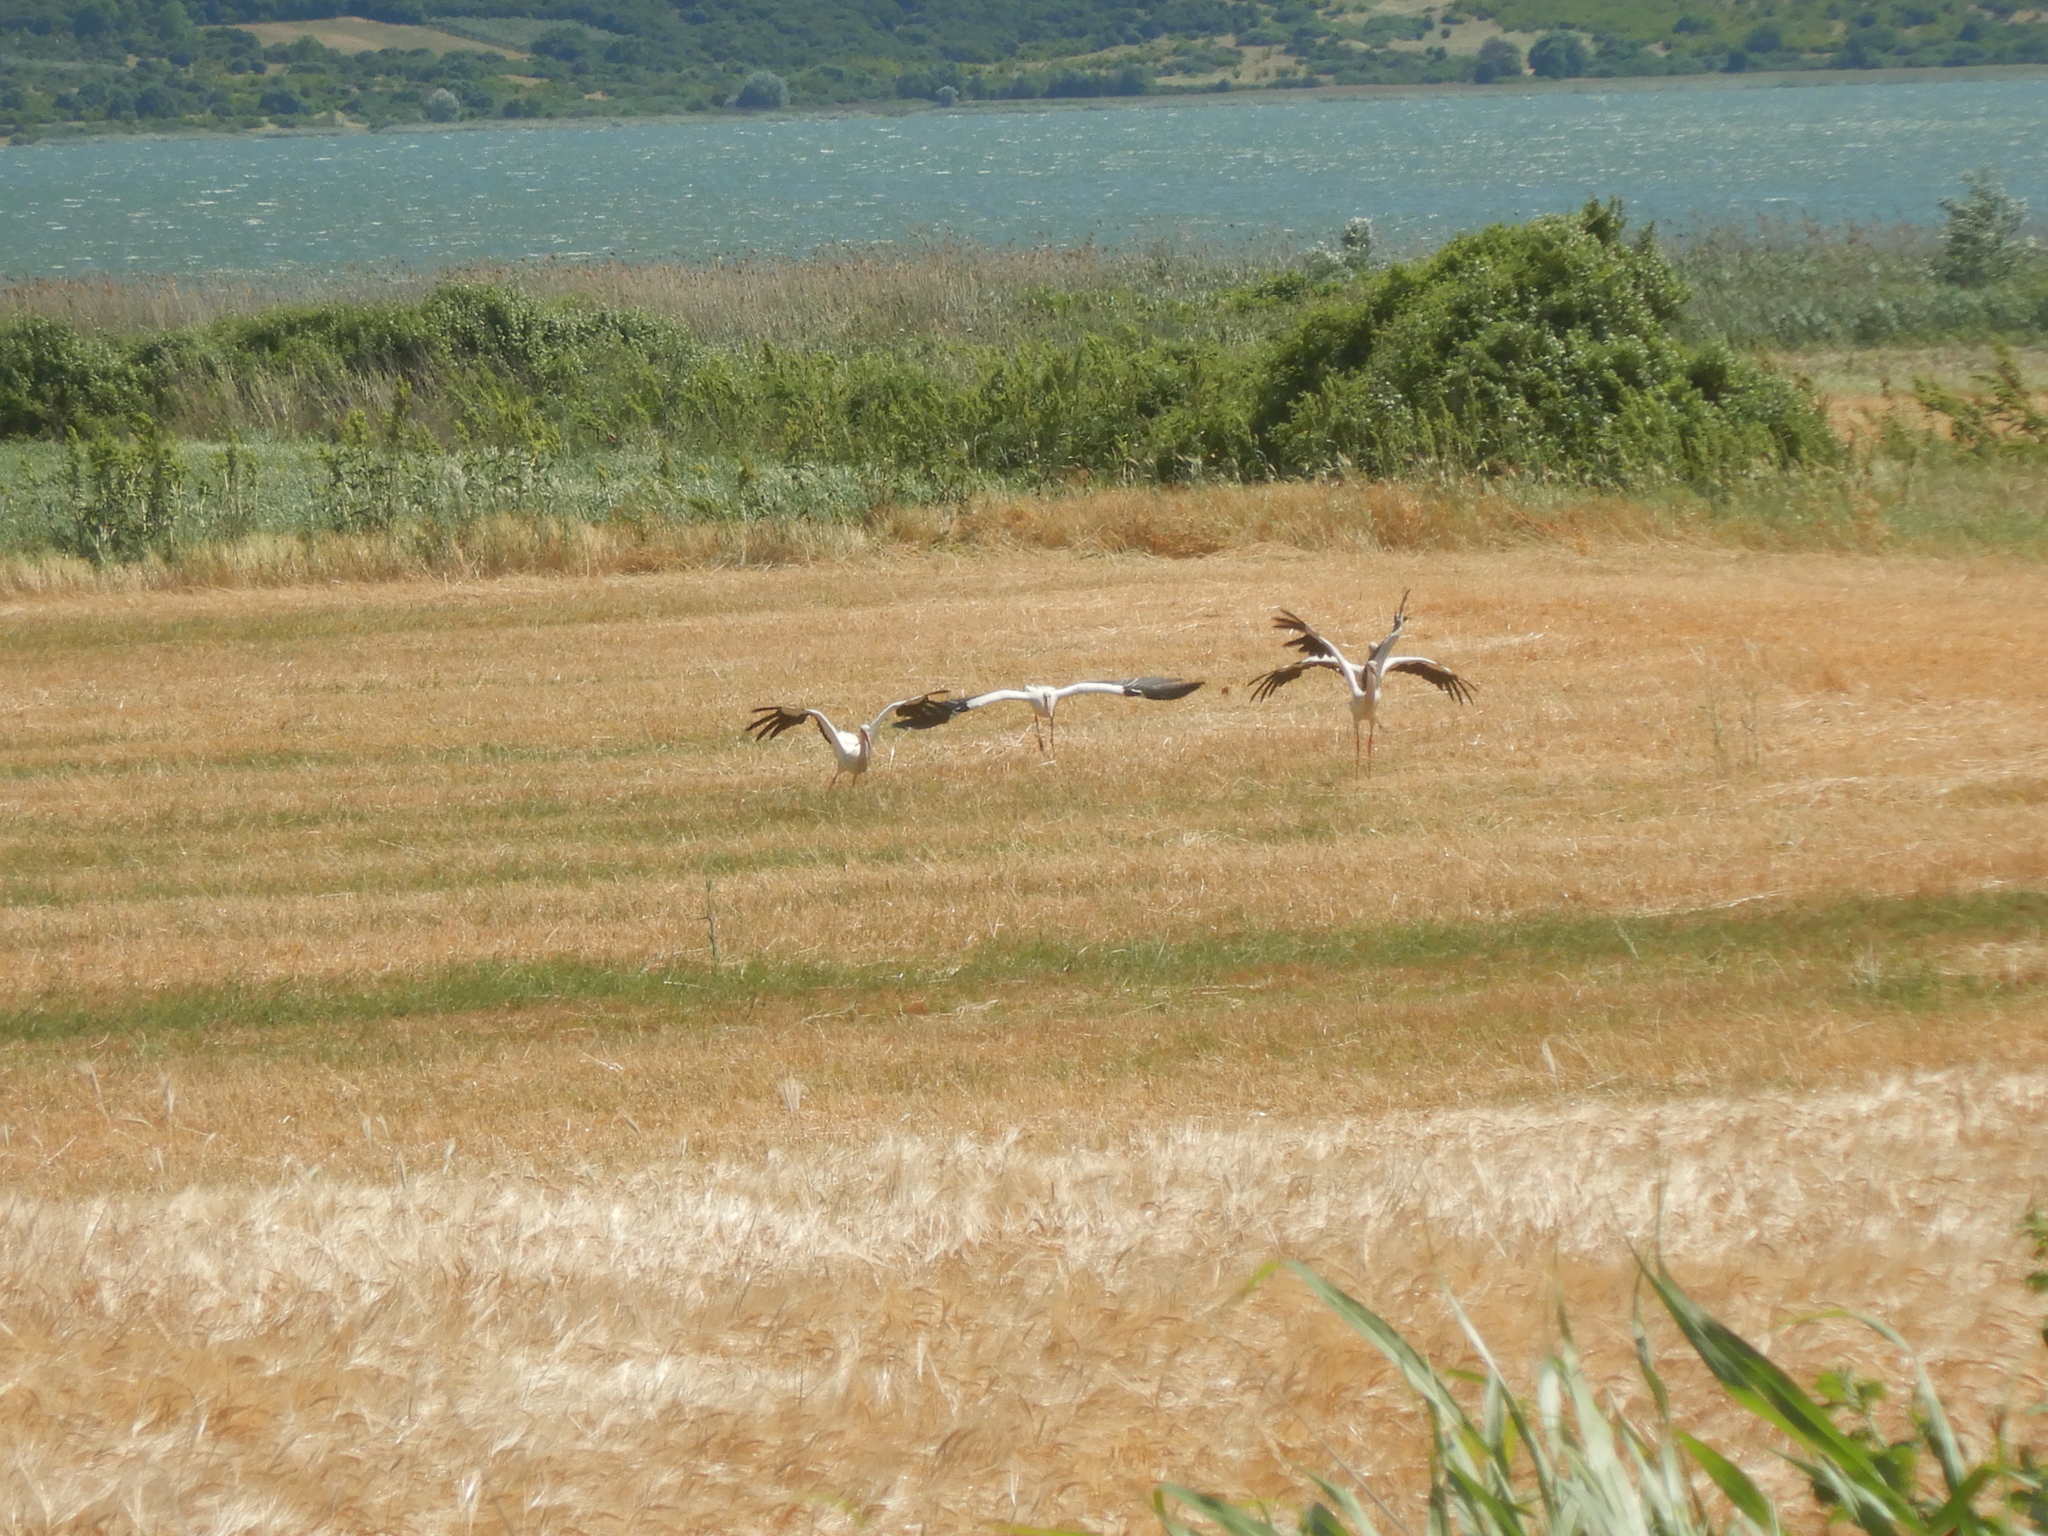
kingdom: Animalia
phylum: Chordata
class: Aves
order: Ciconiiformes
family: Ciconiidae
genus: Ciconia
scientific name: Ciconia ciconia
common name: White stork
